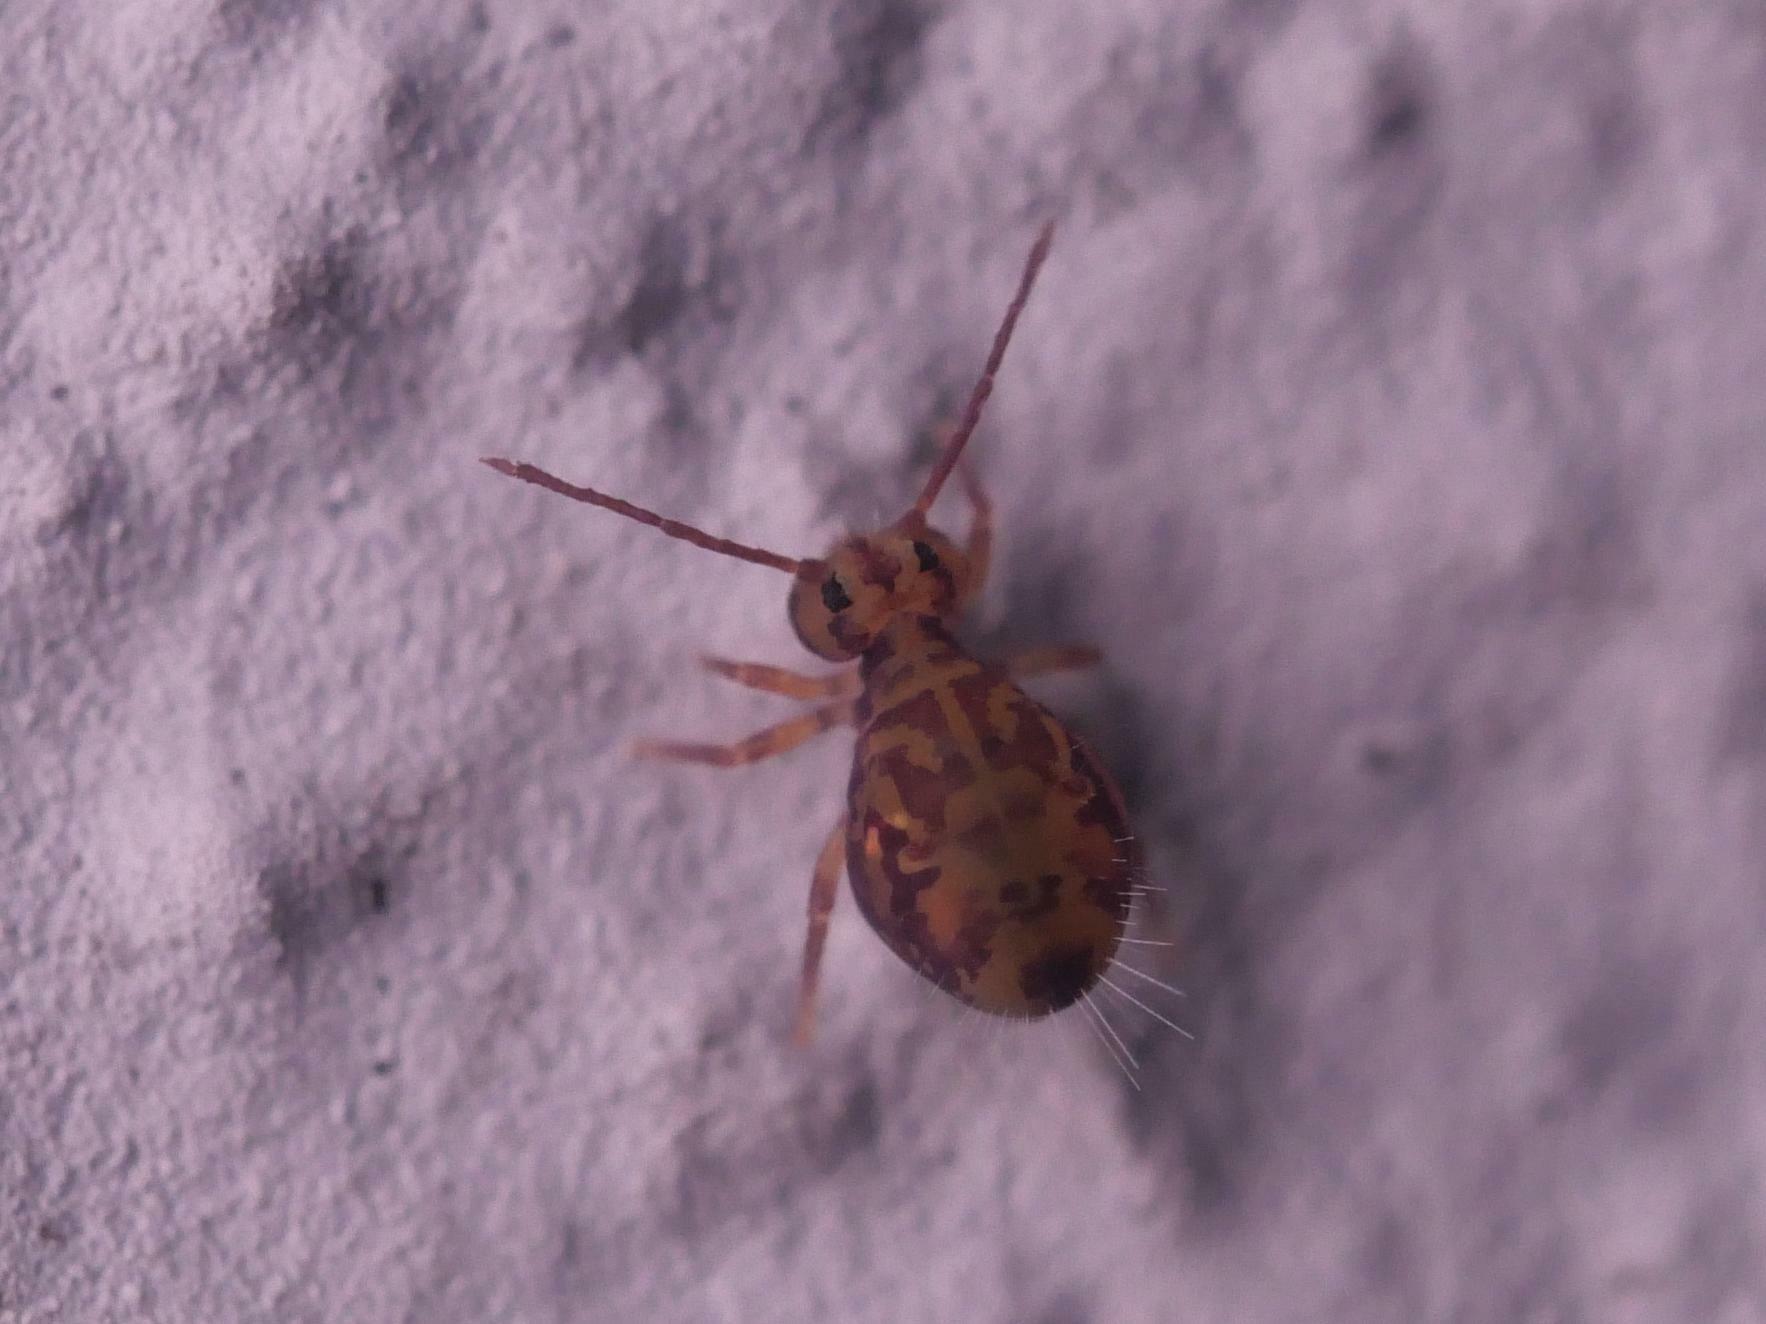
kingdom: Animalia
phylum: Arthropoda
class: Collembola
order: Symphypleona
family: Dicyrtomidae
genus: Dicyrtomina
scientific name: Dicyrtomina ornata
